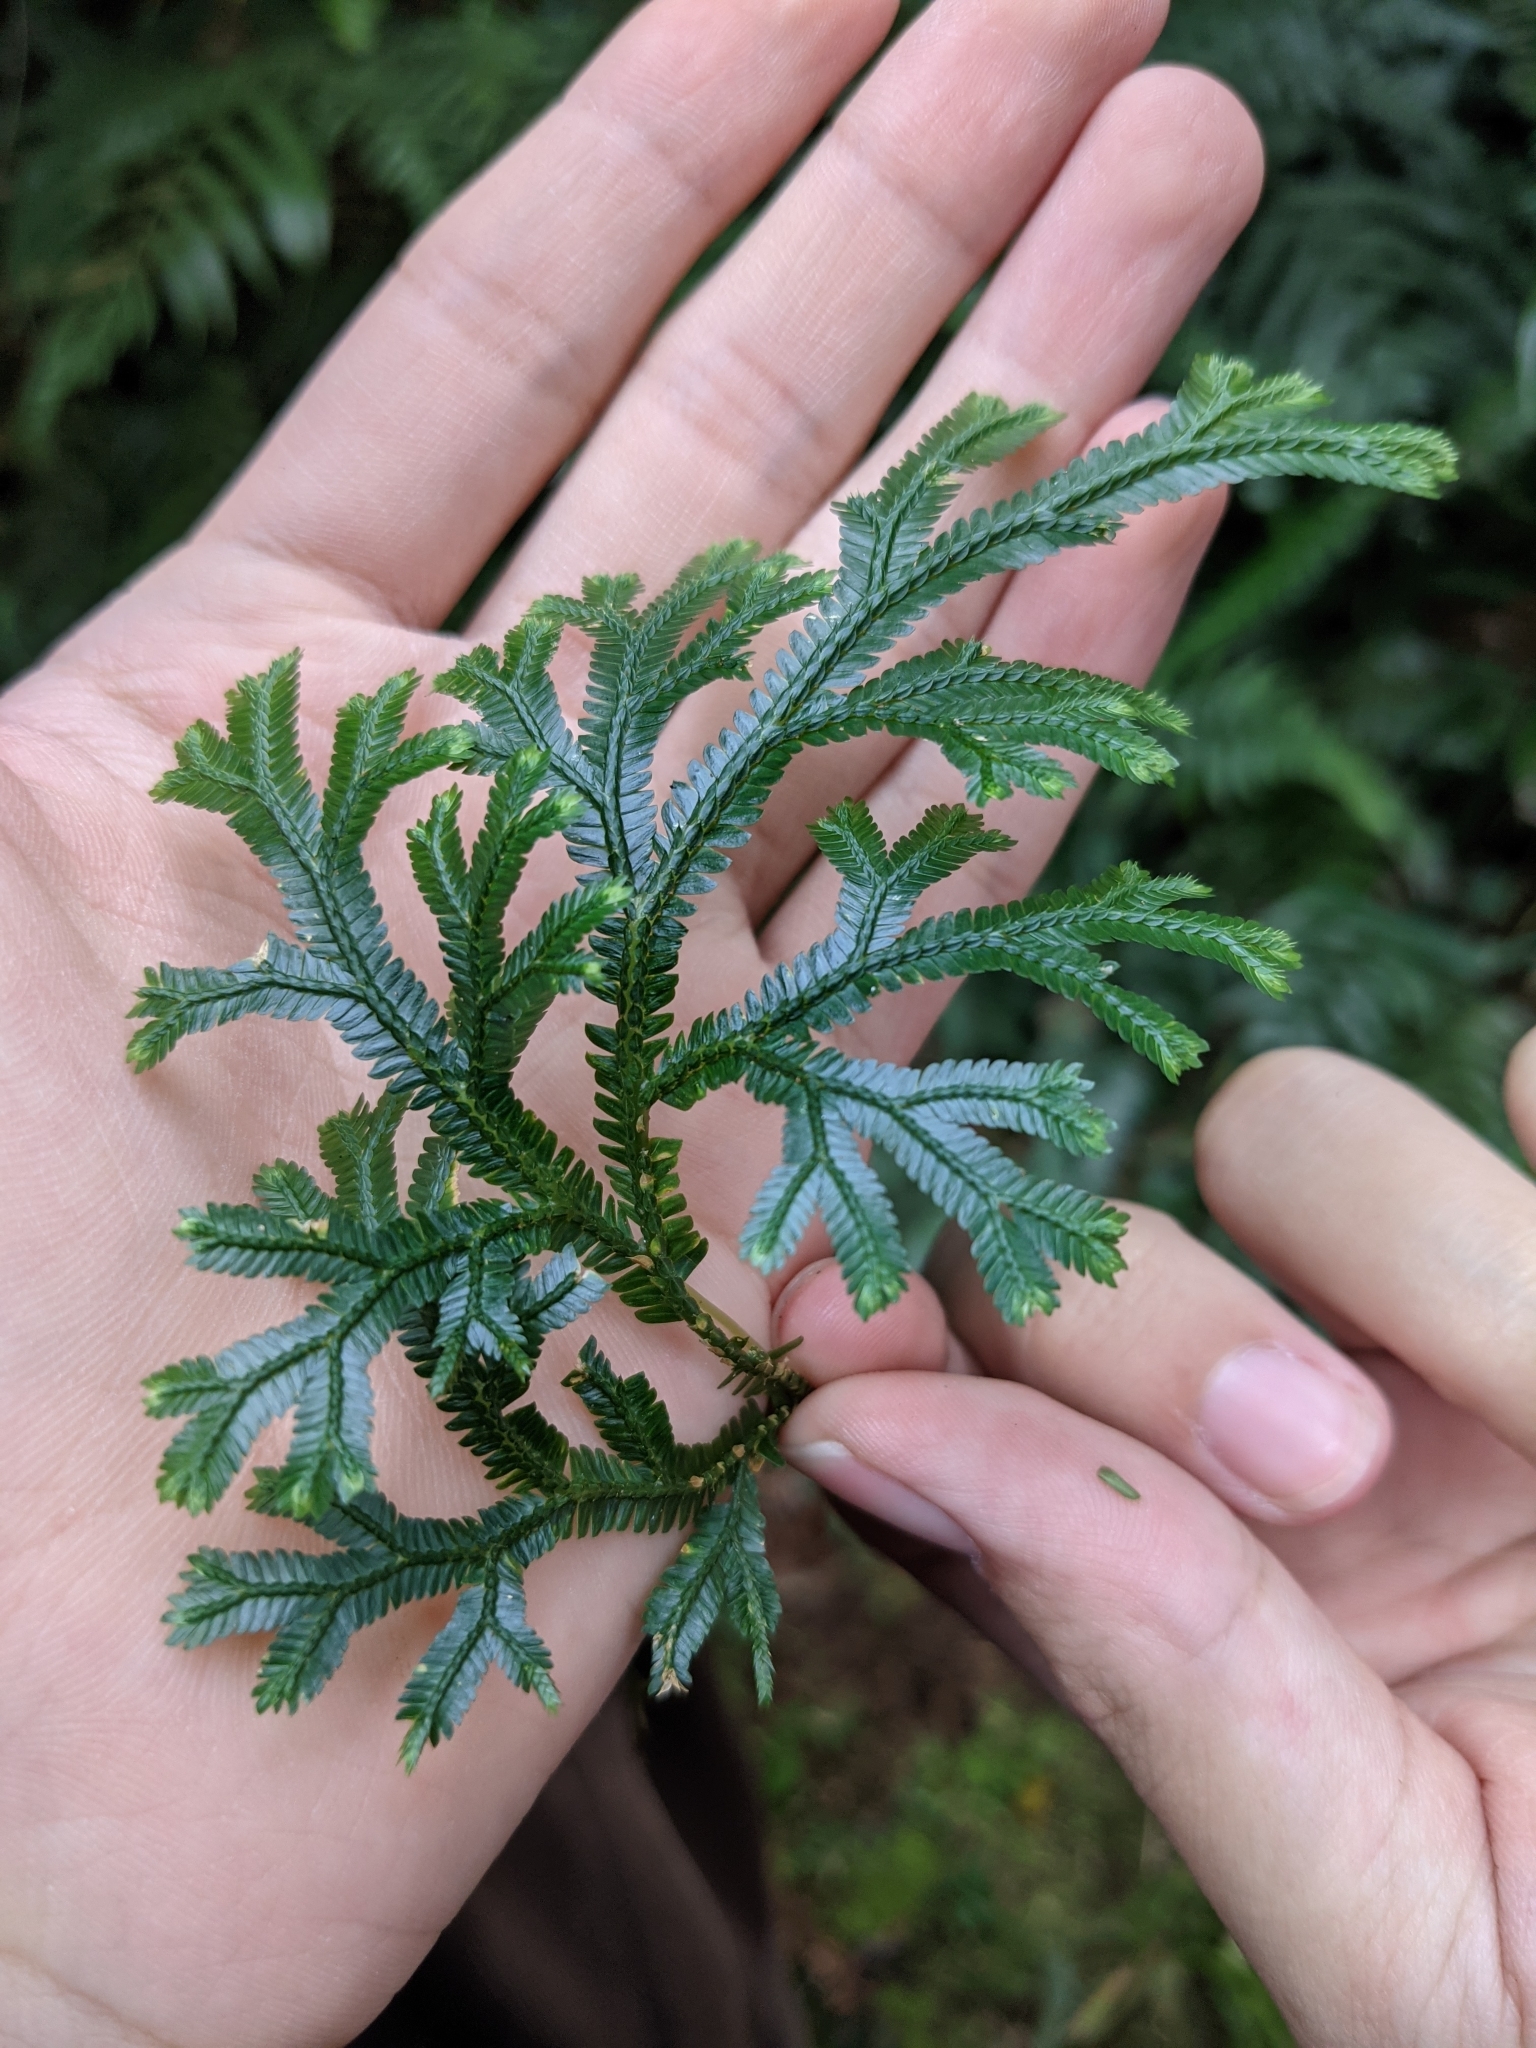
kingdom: Plantae
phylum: Tracheophyta
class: Lycopodiopsida
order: Selaginellales
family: Selaginellaceae
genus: Selaginella
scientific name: Selaginella doederleinii
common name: Greater selaginella
